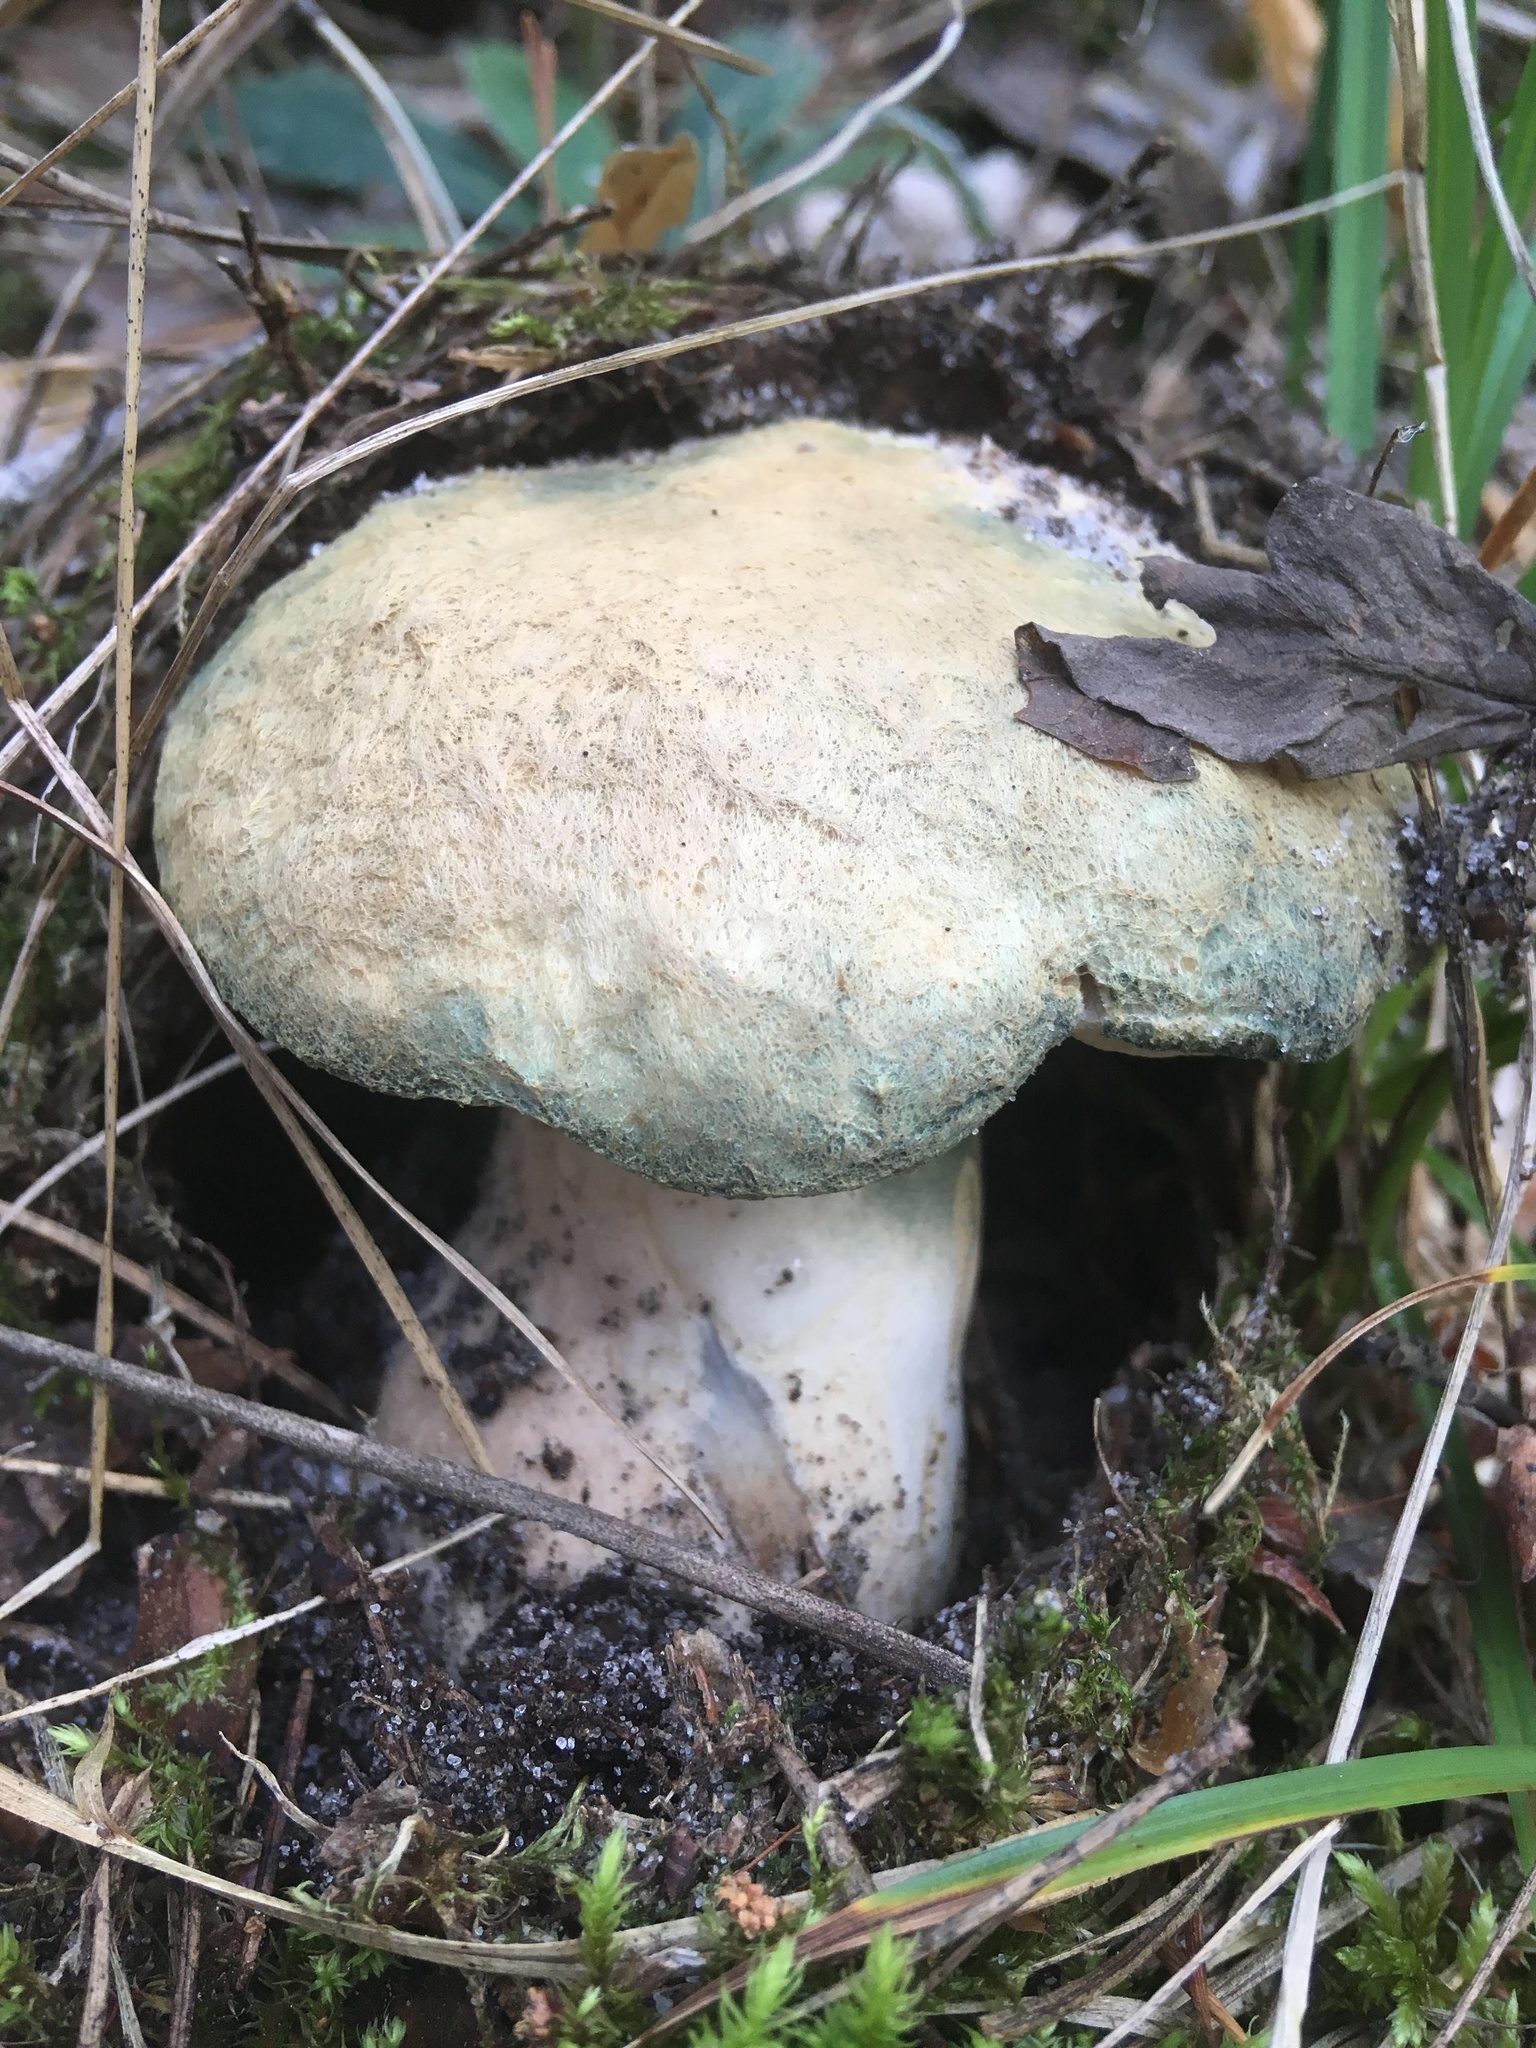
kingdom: Fungi
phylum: Basidiomycota
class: Agaricomycetes
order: Boletales
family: Gyroporaceae
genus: Gyroporus
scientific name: Gyroporus cyanescens
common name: Cornflower bolete
